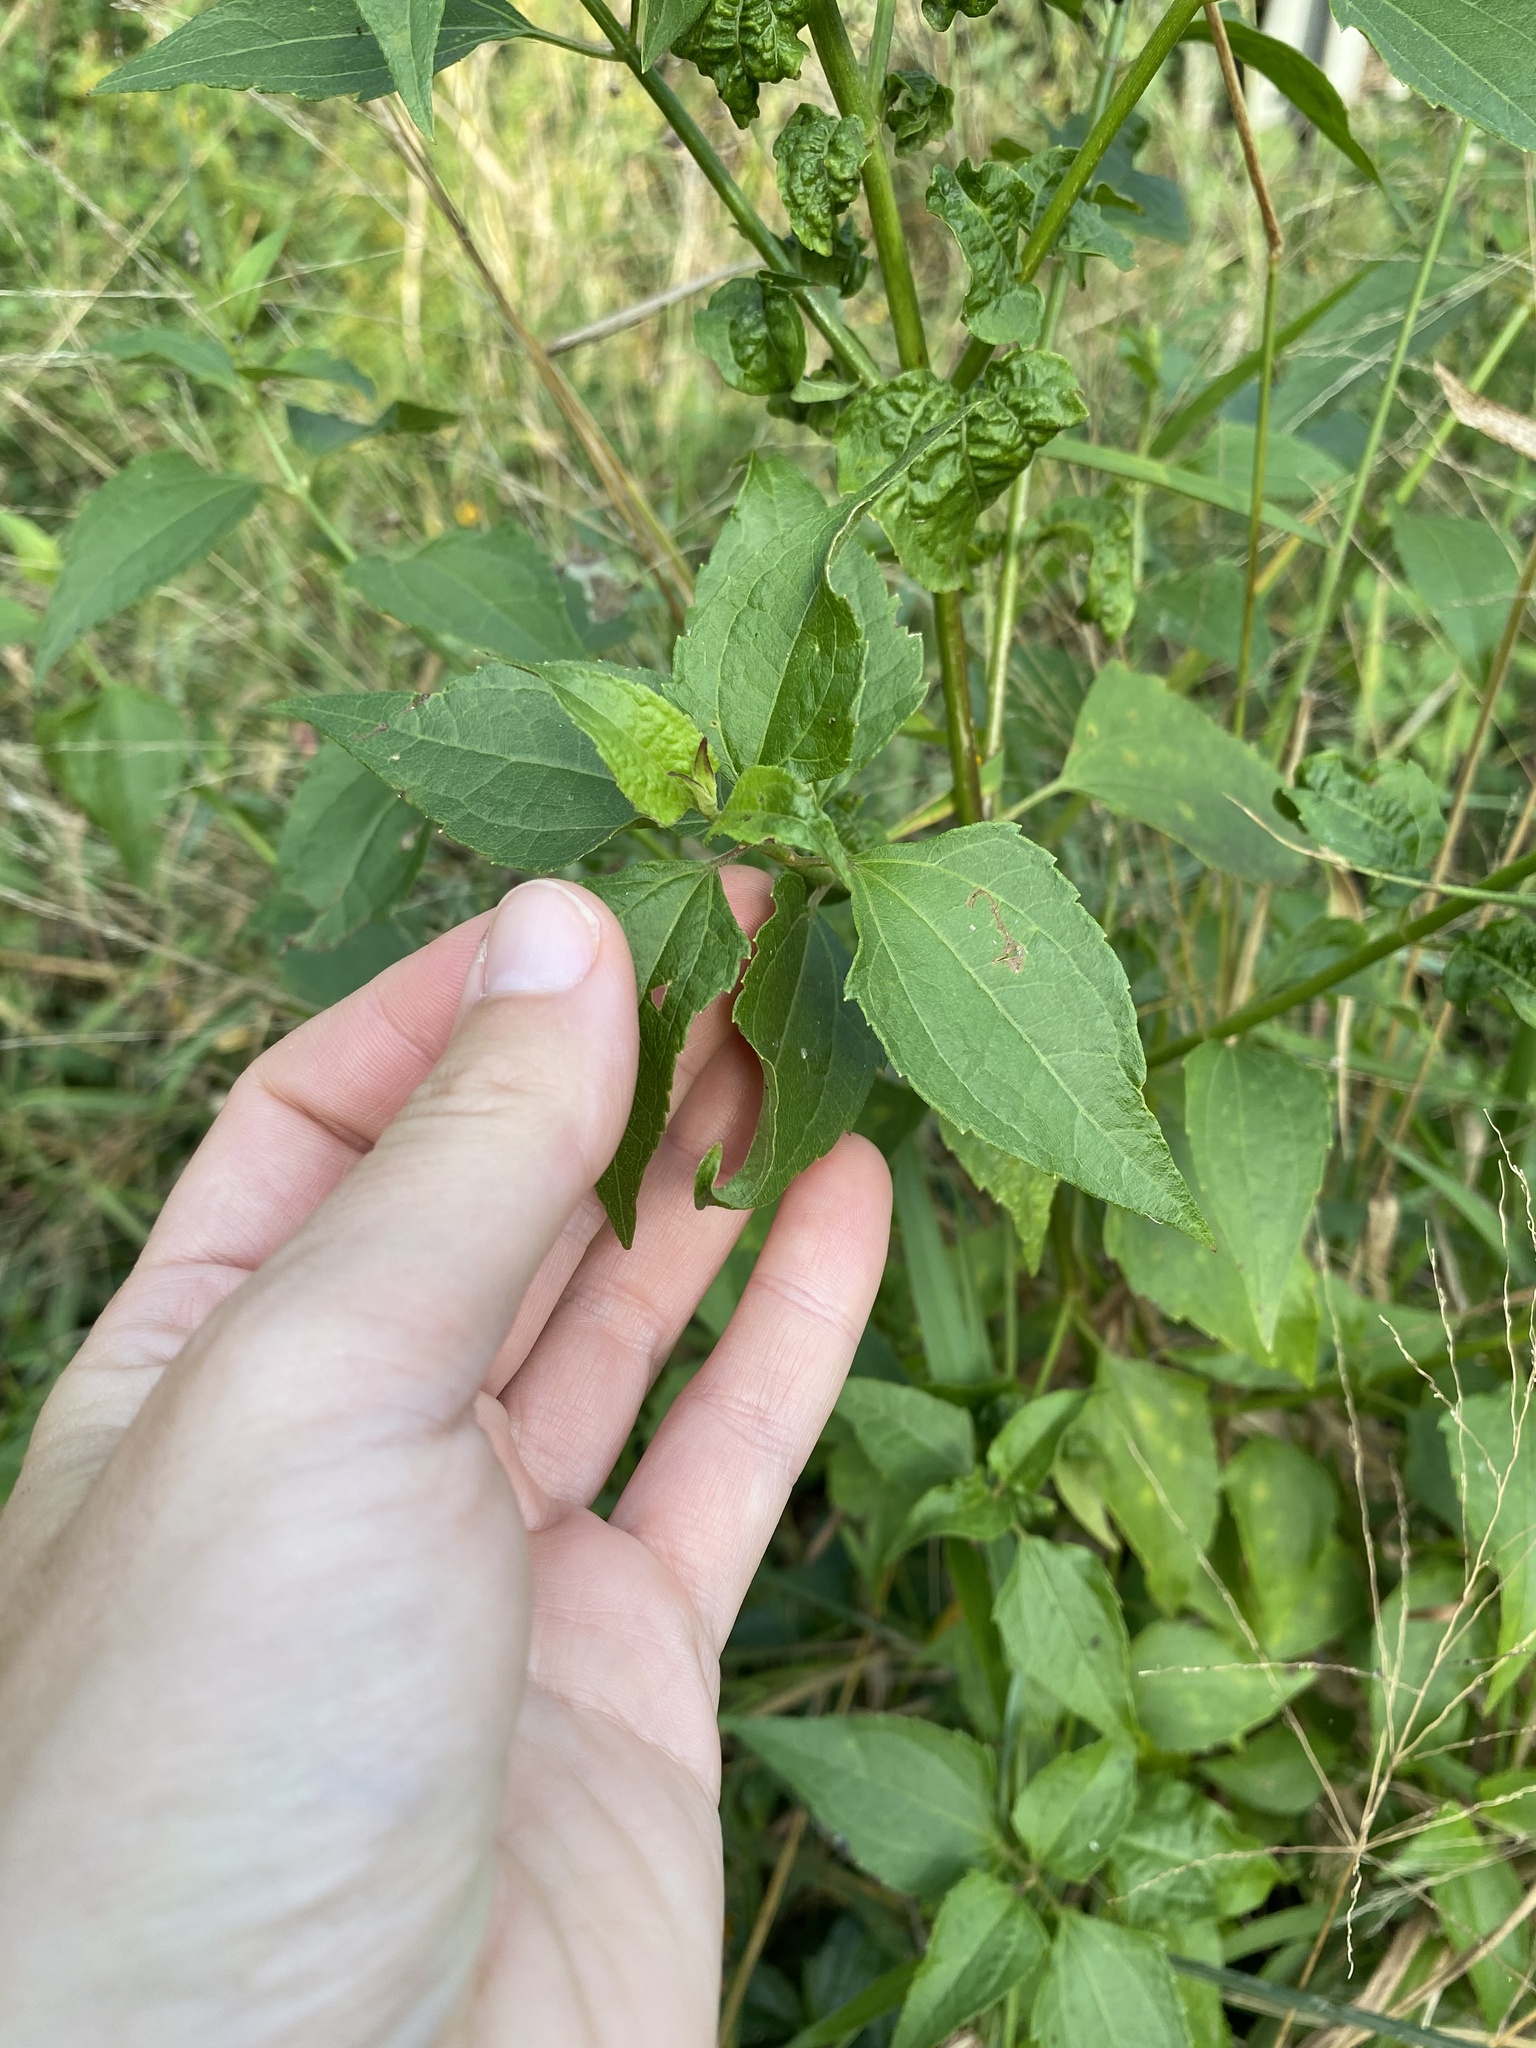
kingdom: Plantae
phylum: Tracheophyta
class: Magnoliopsida
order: Asterales
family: Asteraceae
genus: Chromolaena
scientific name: Chromolaena odorata
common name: Siamweed
